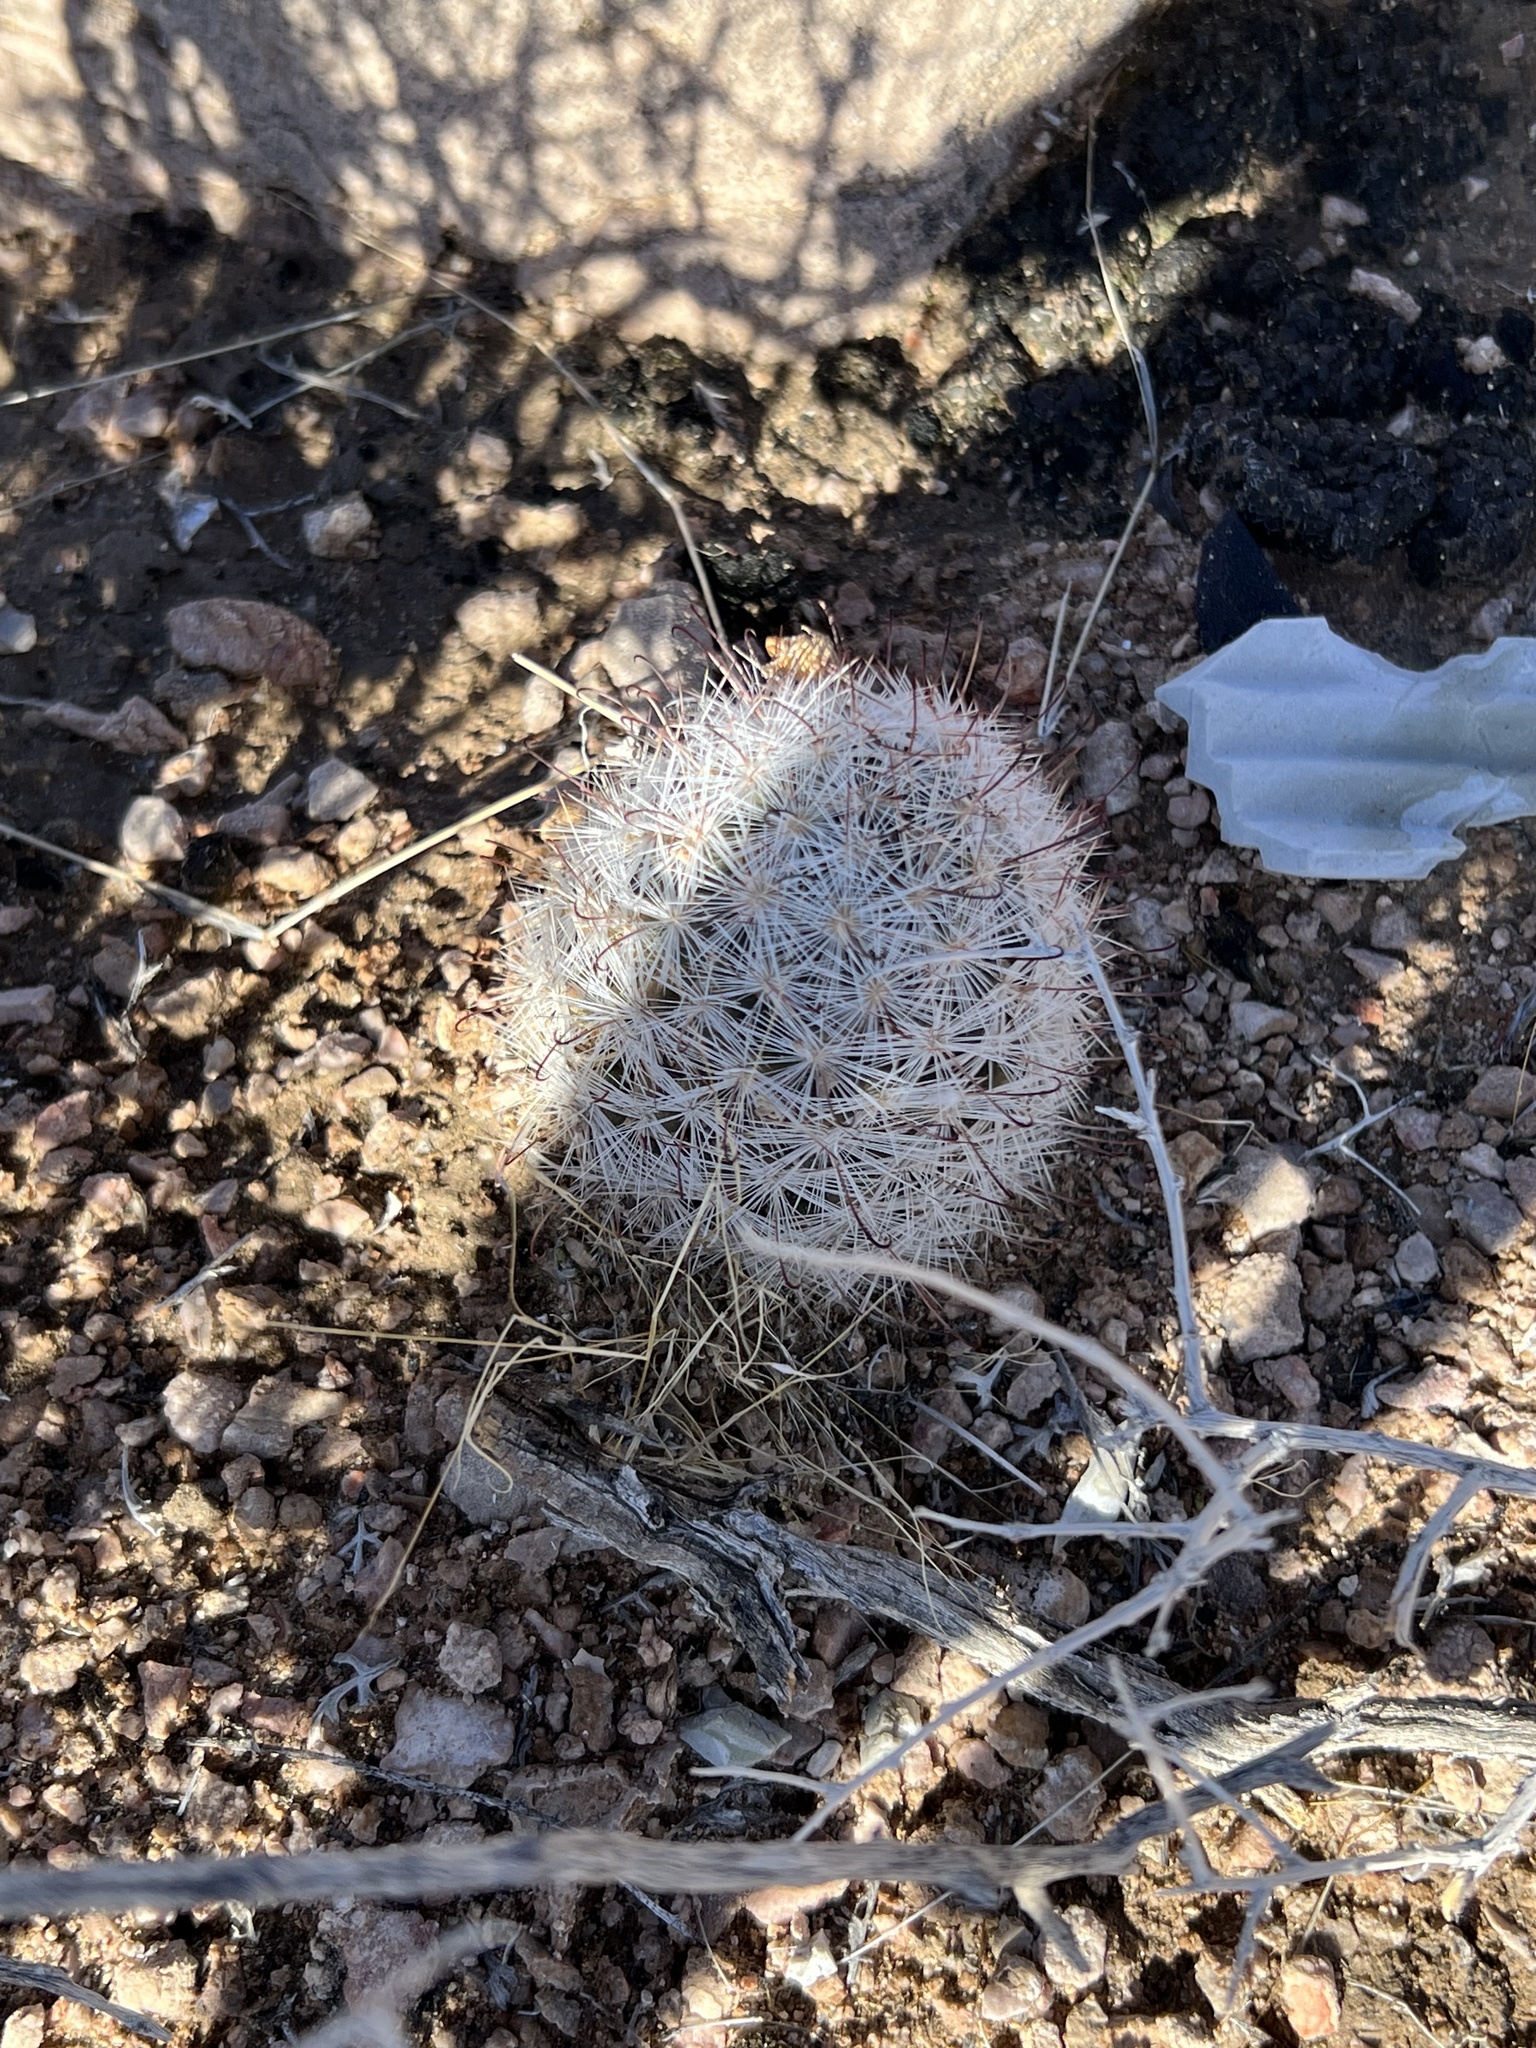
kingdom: Plantae
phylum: Tracheophyta
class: Magnoliopsida
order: Caryophyllales
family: Cactaceae
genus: Cochemiea
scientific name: Cochemiea tetrancistra
